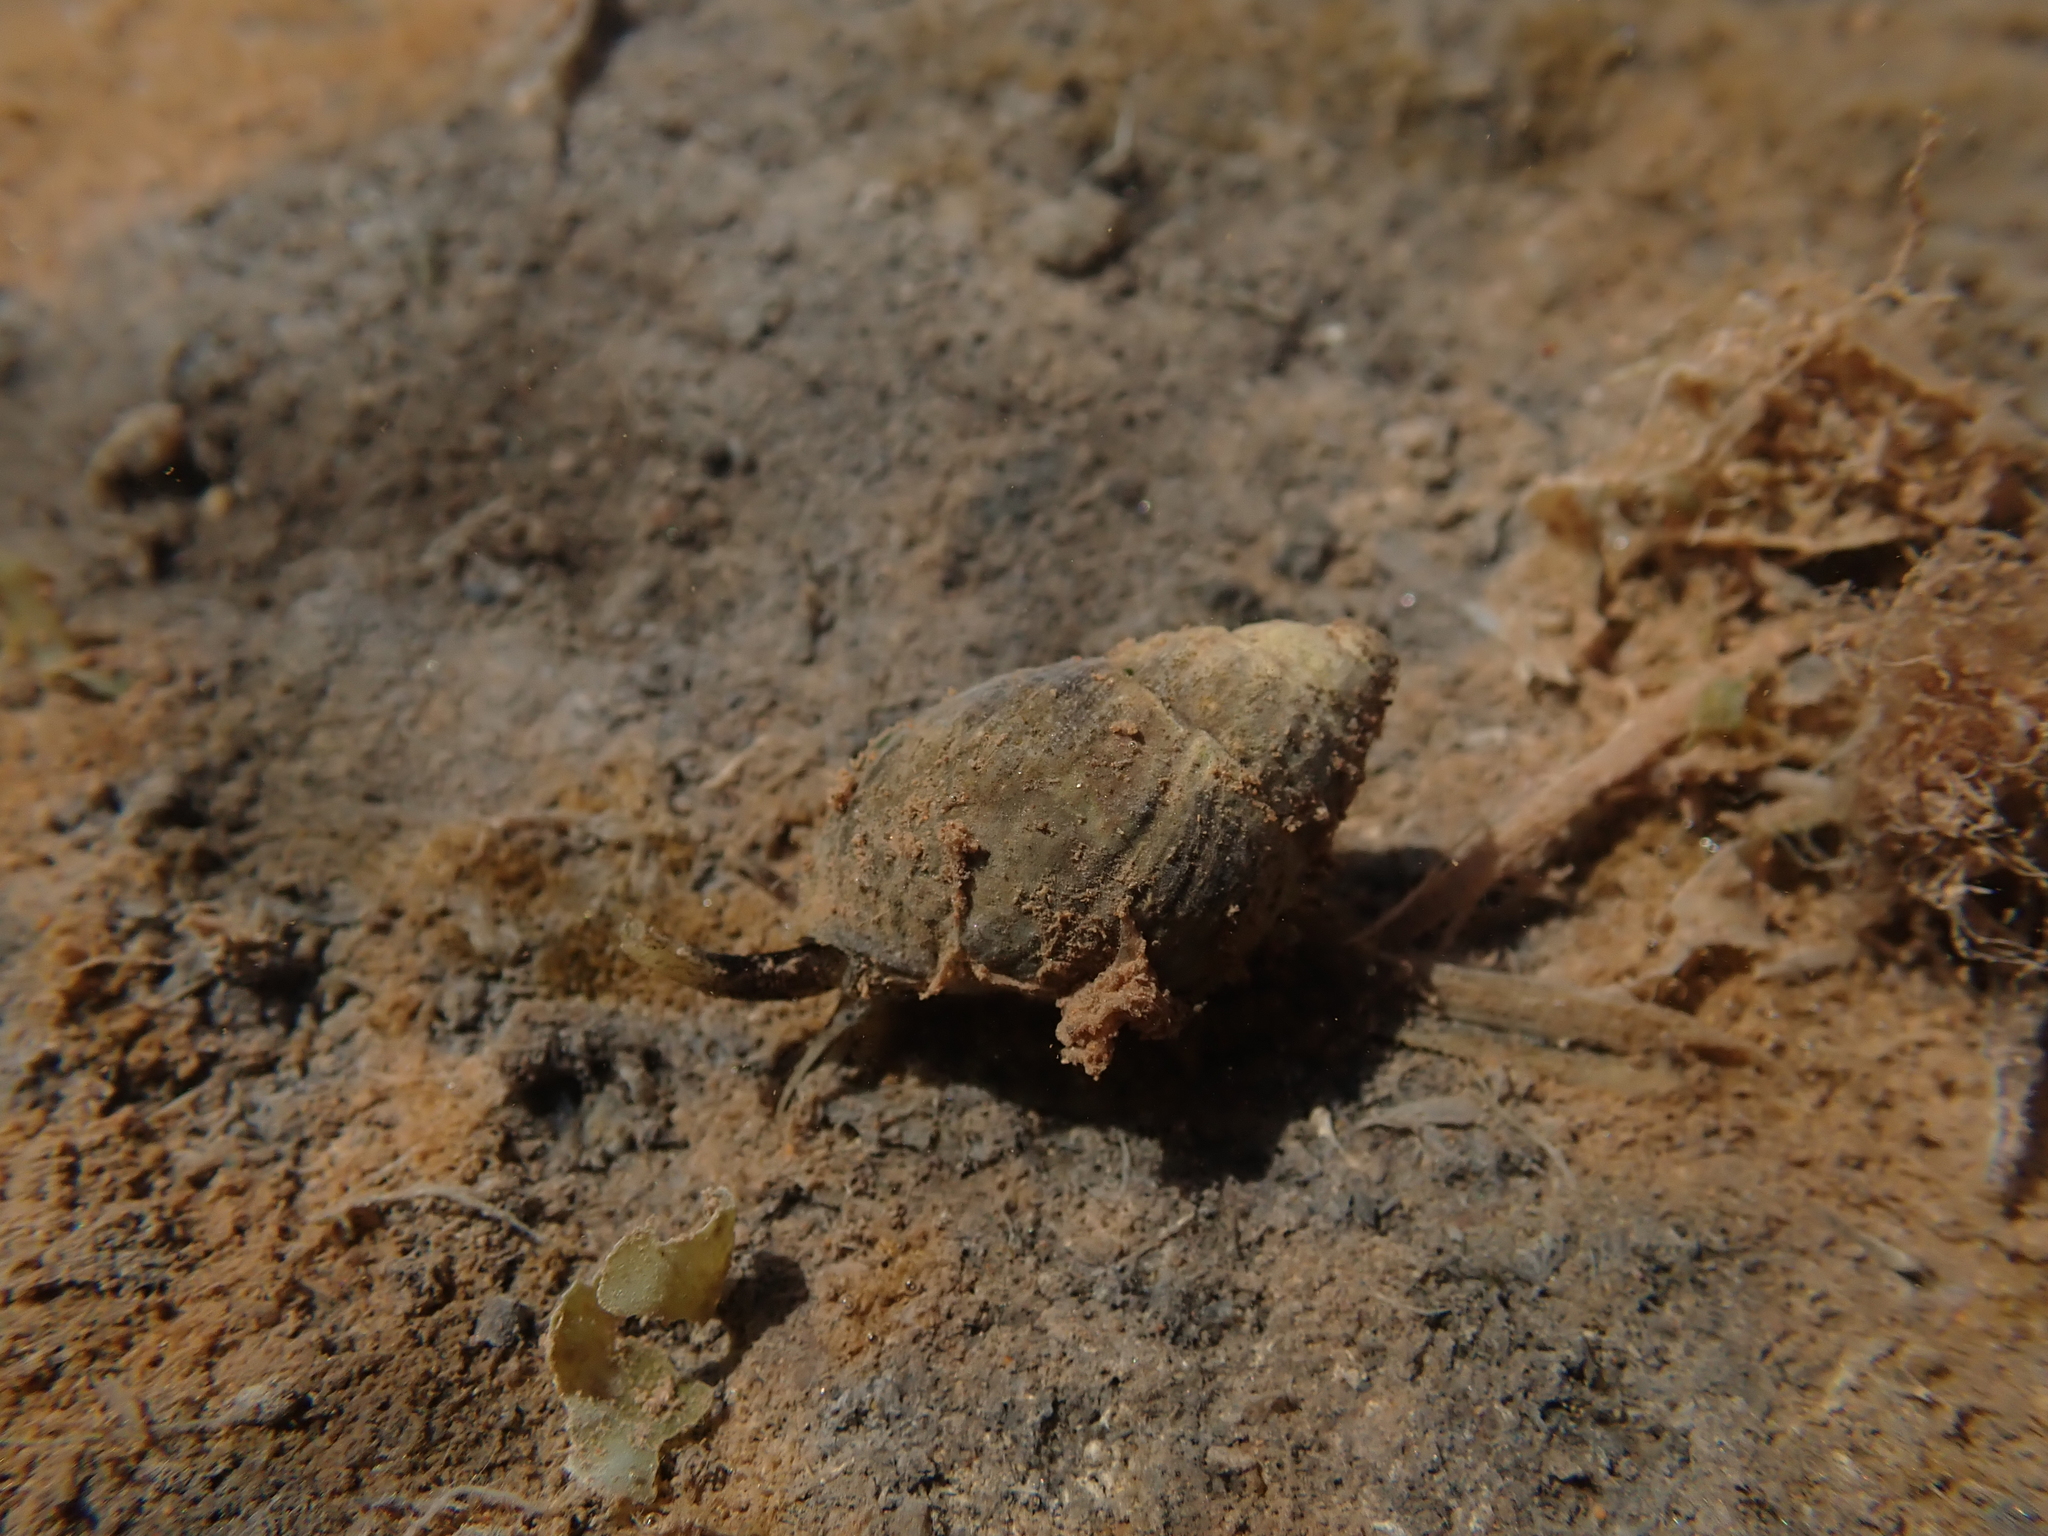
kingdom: Animalia
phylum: Mollusca
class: Gastropoda
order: Neogastropoda
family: Nassariidae
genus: Ilyanassa
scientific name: Ilyanassa obsoleta
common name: Eastern mudsnail
